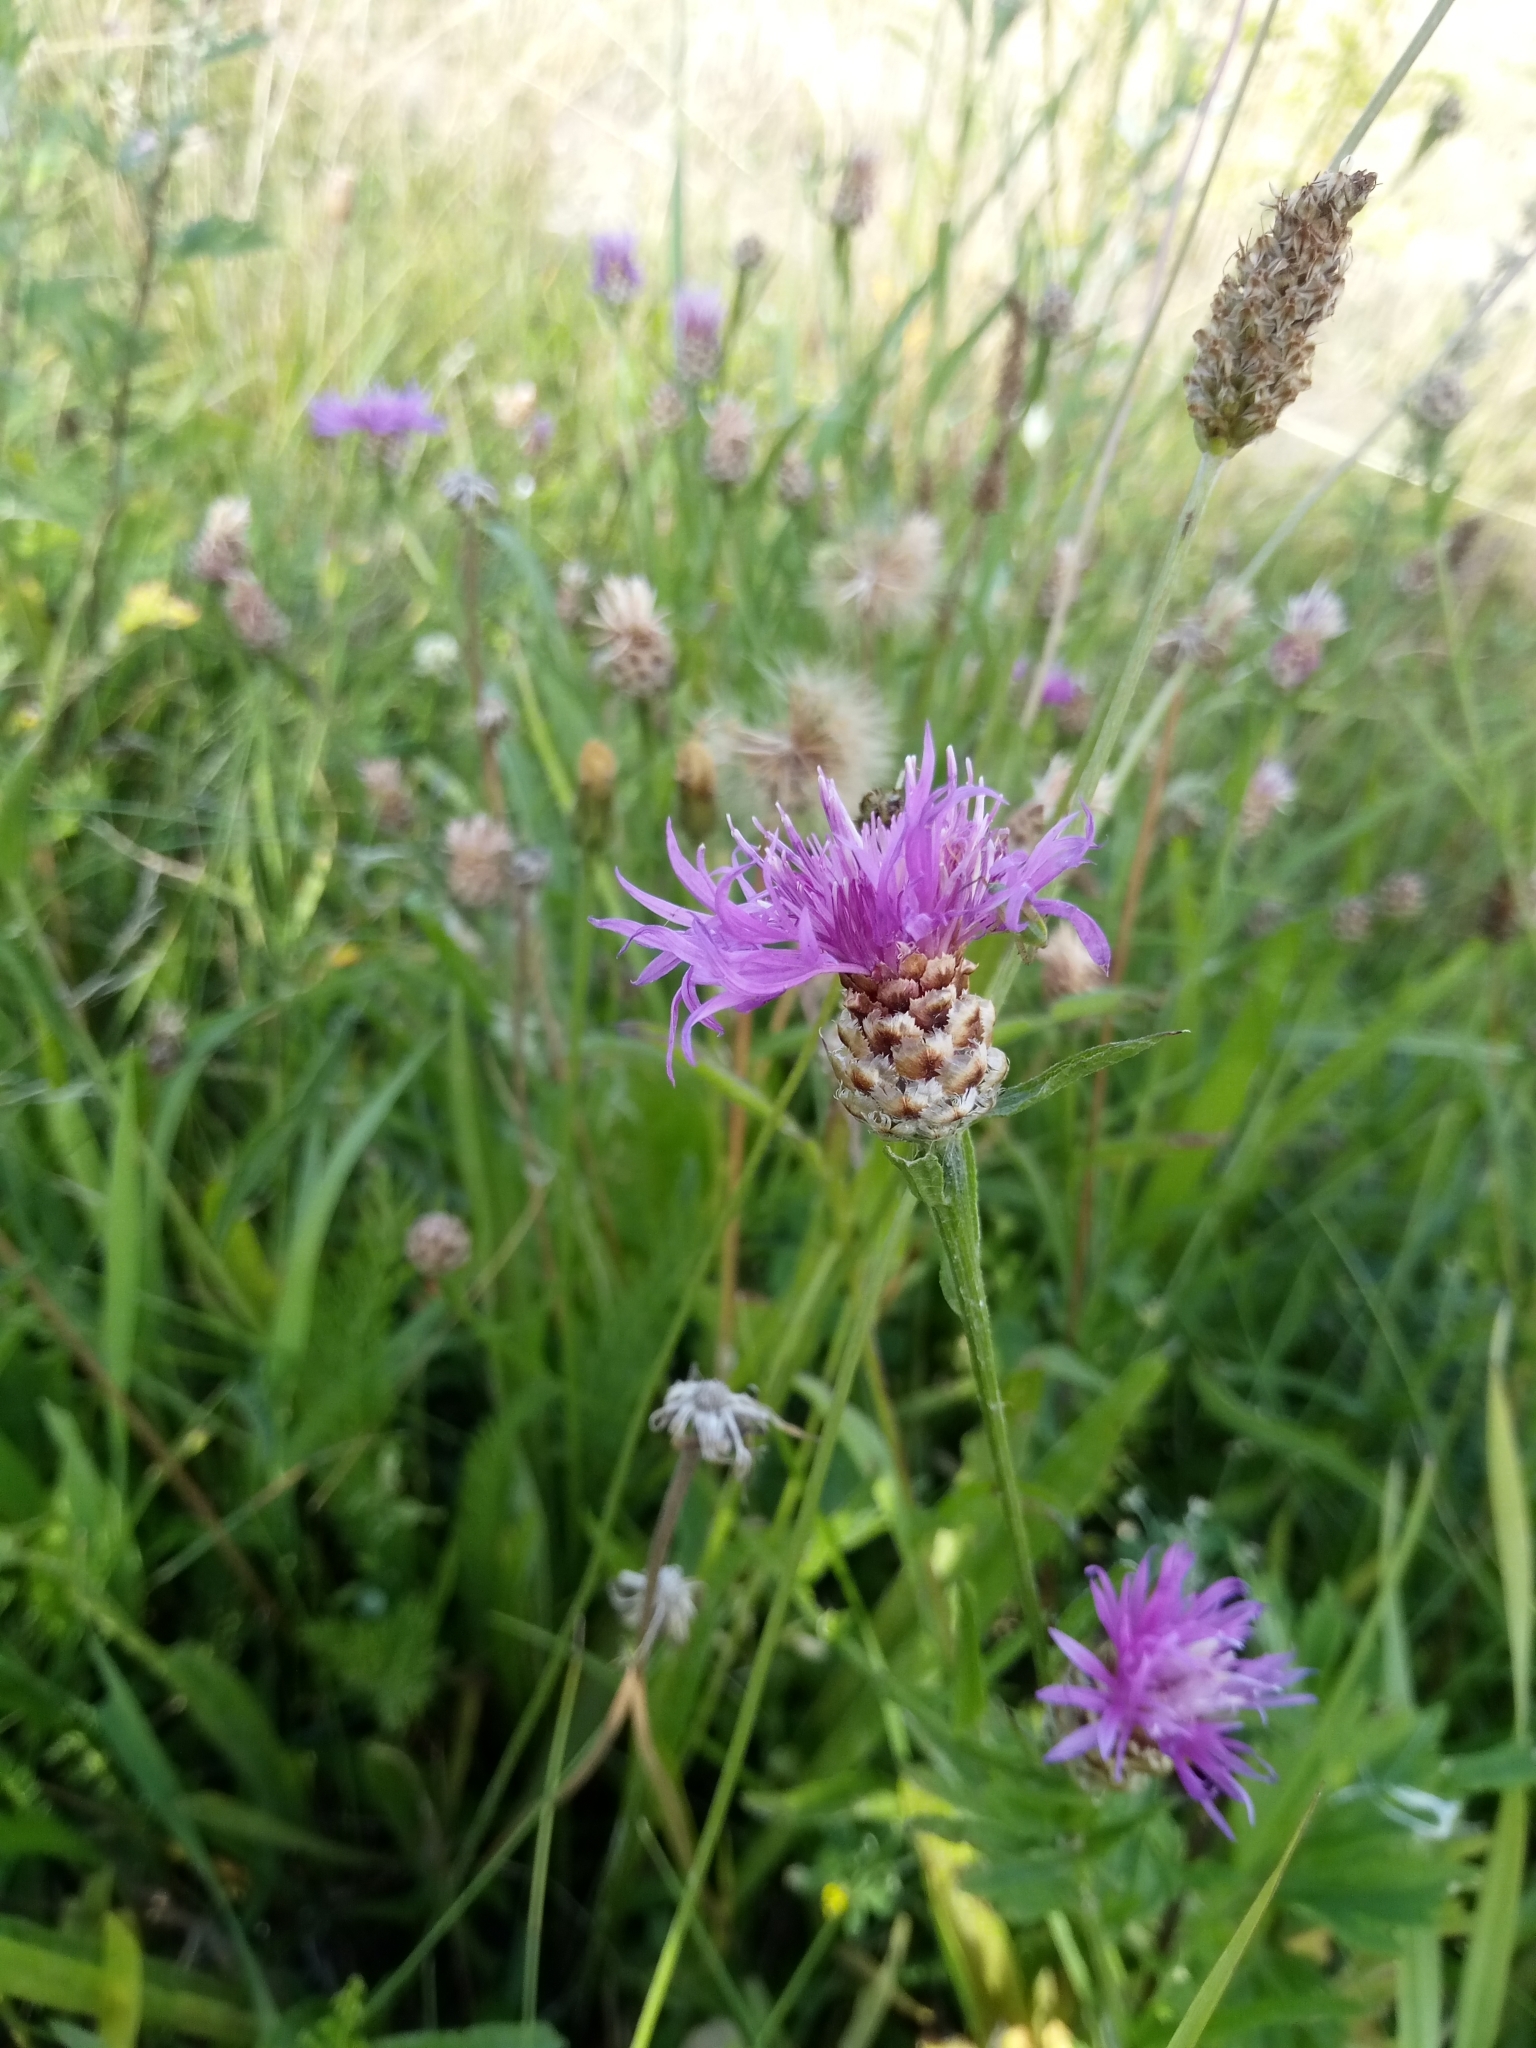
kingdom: Plantae
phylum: Tracheophyta
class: Magnoliopsida
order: Asterales
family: Asteraceae
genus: Centaurea
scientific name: Centaurea jacea
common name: Brown knapweed
